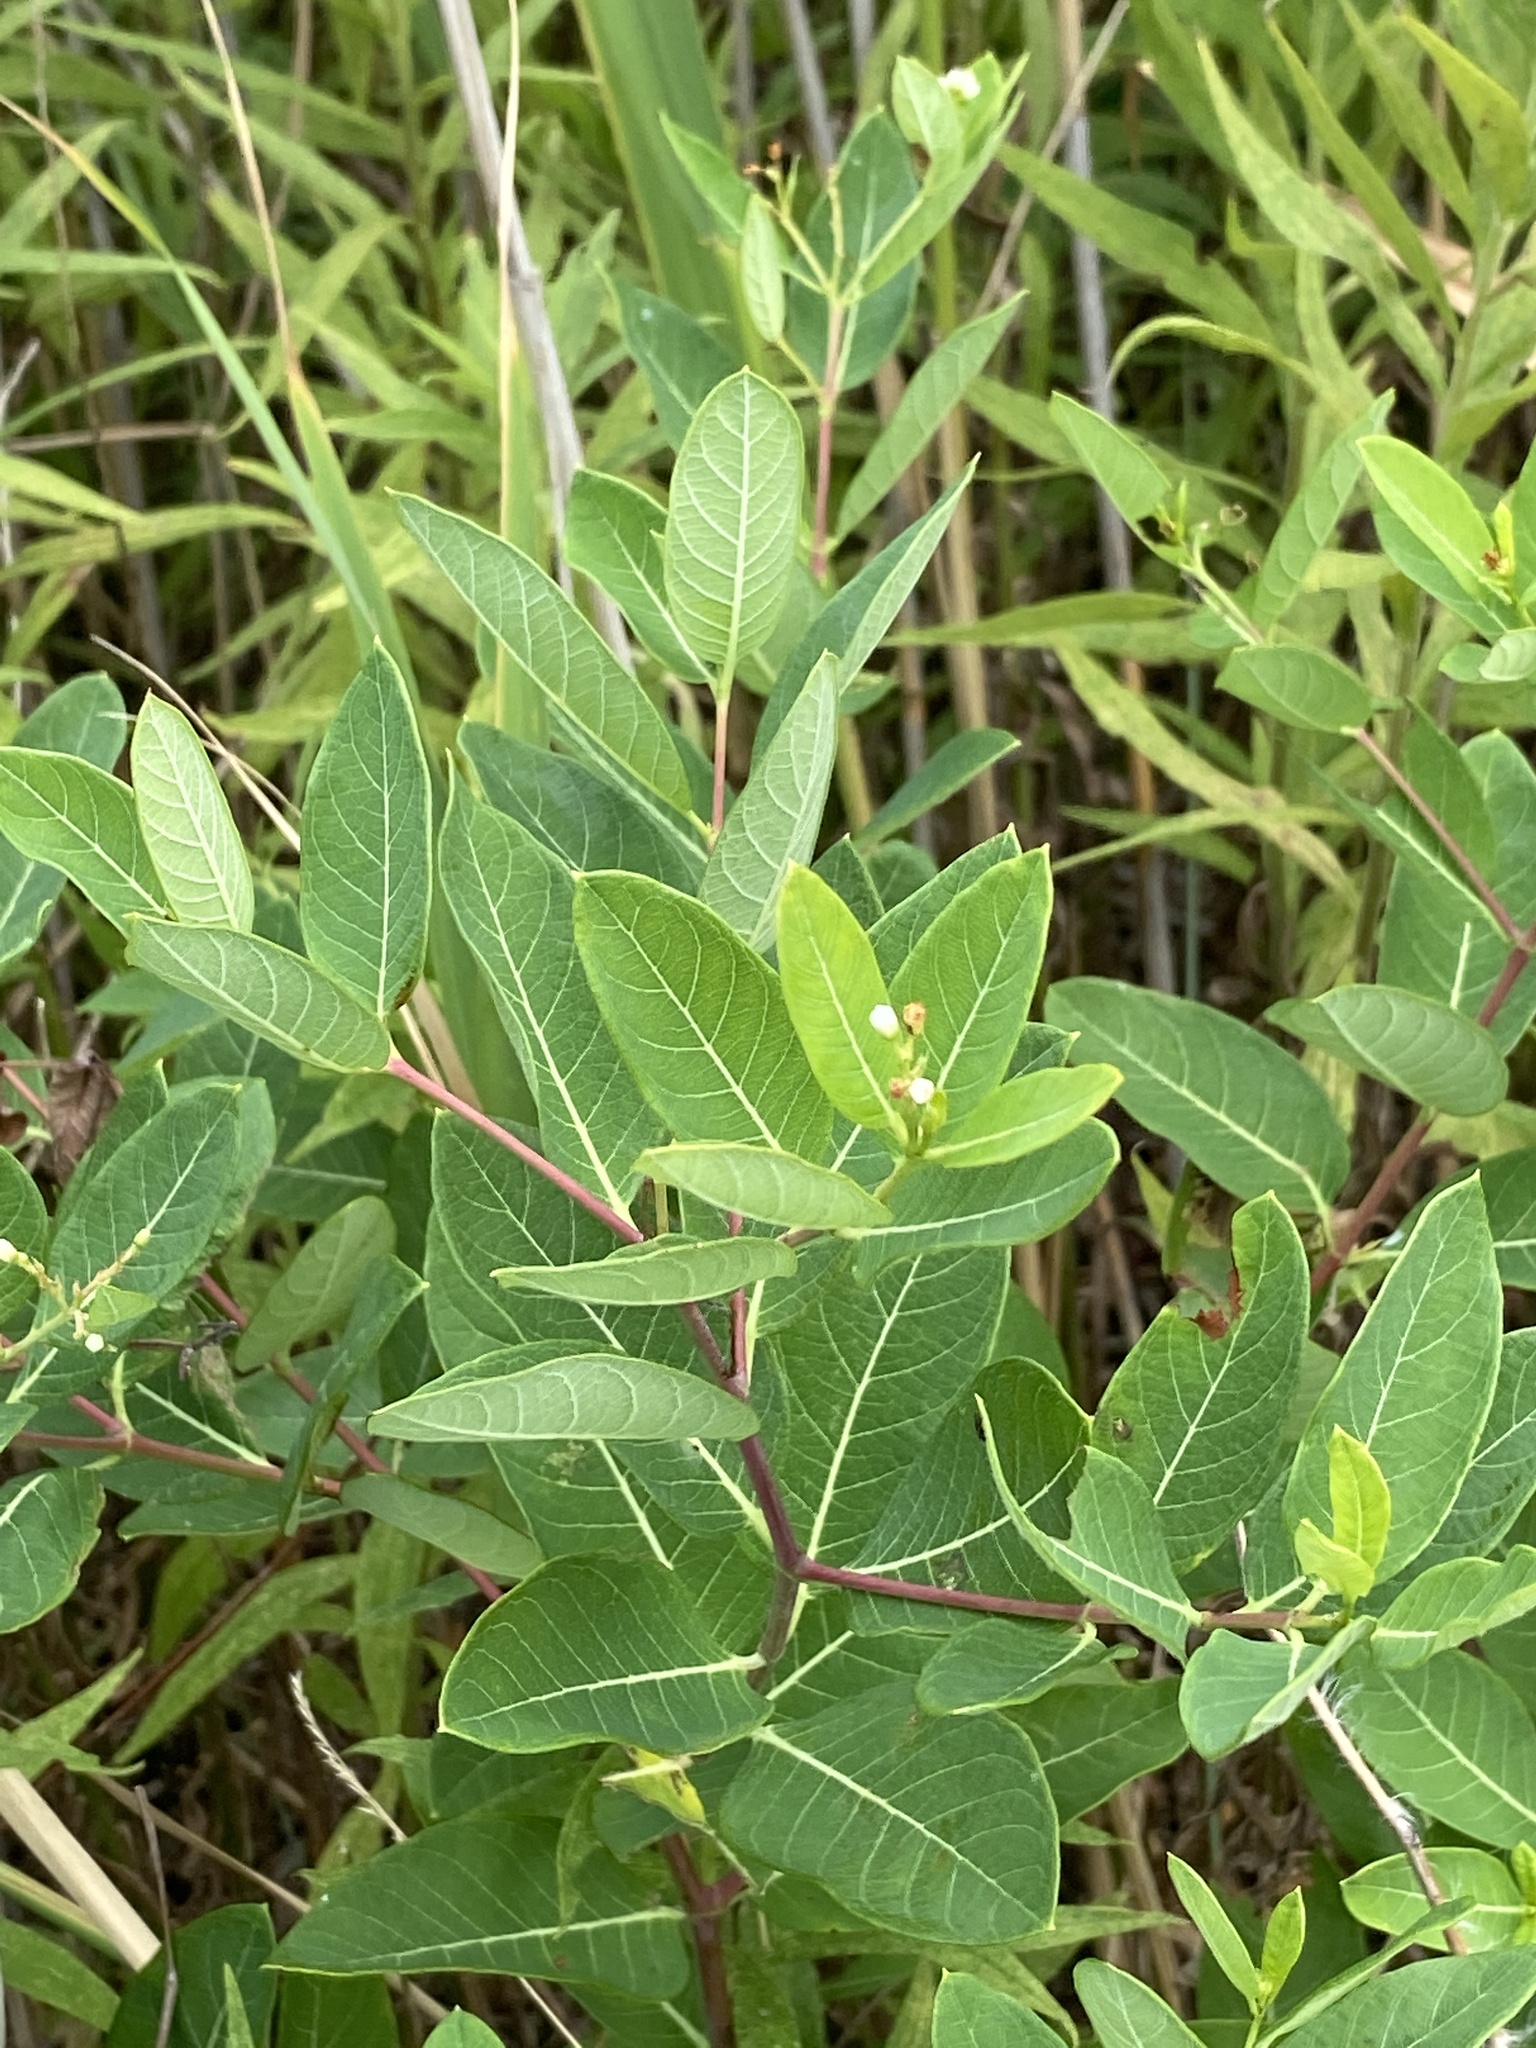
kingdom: Plantae
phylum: Tracheophyta
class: Magnoliopsida
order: Gentianales
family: Apocynaceae
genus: Apocynum
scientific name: Apocynum cannabinum
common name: Hemp dogbane
